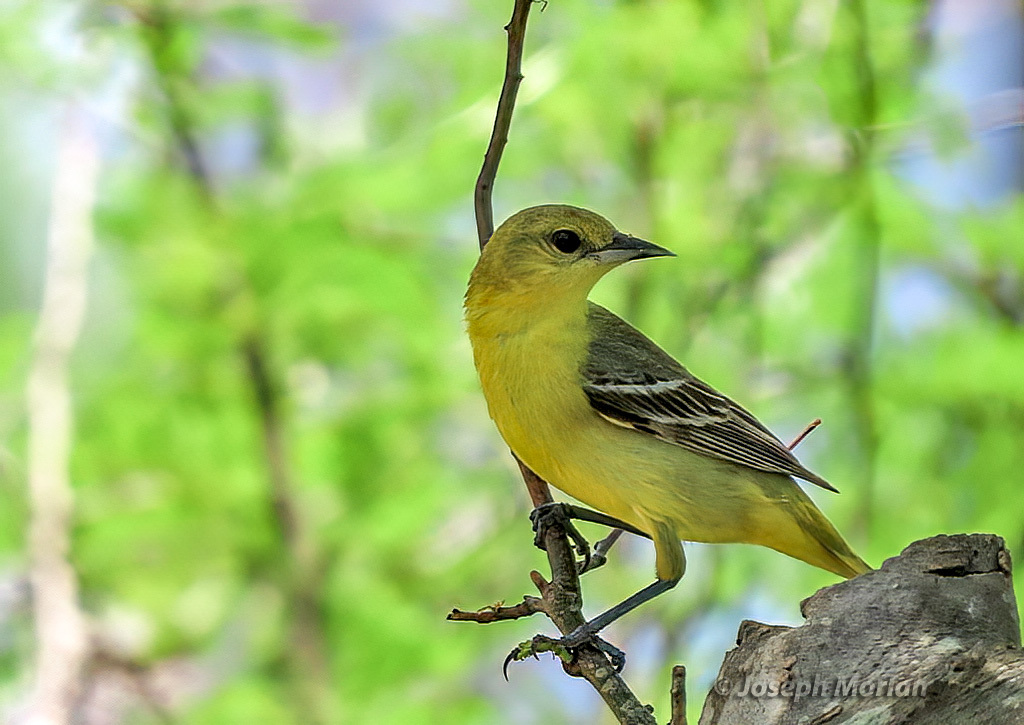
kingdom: Animalia
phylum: Chordata
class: Aves
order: Passeriformes
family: Icteridae
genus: Icterus
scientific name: Icterus spurius
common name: Orchard oriole
